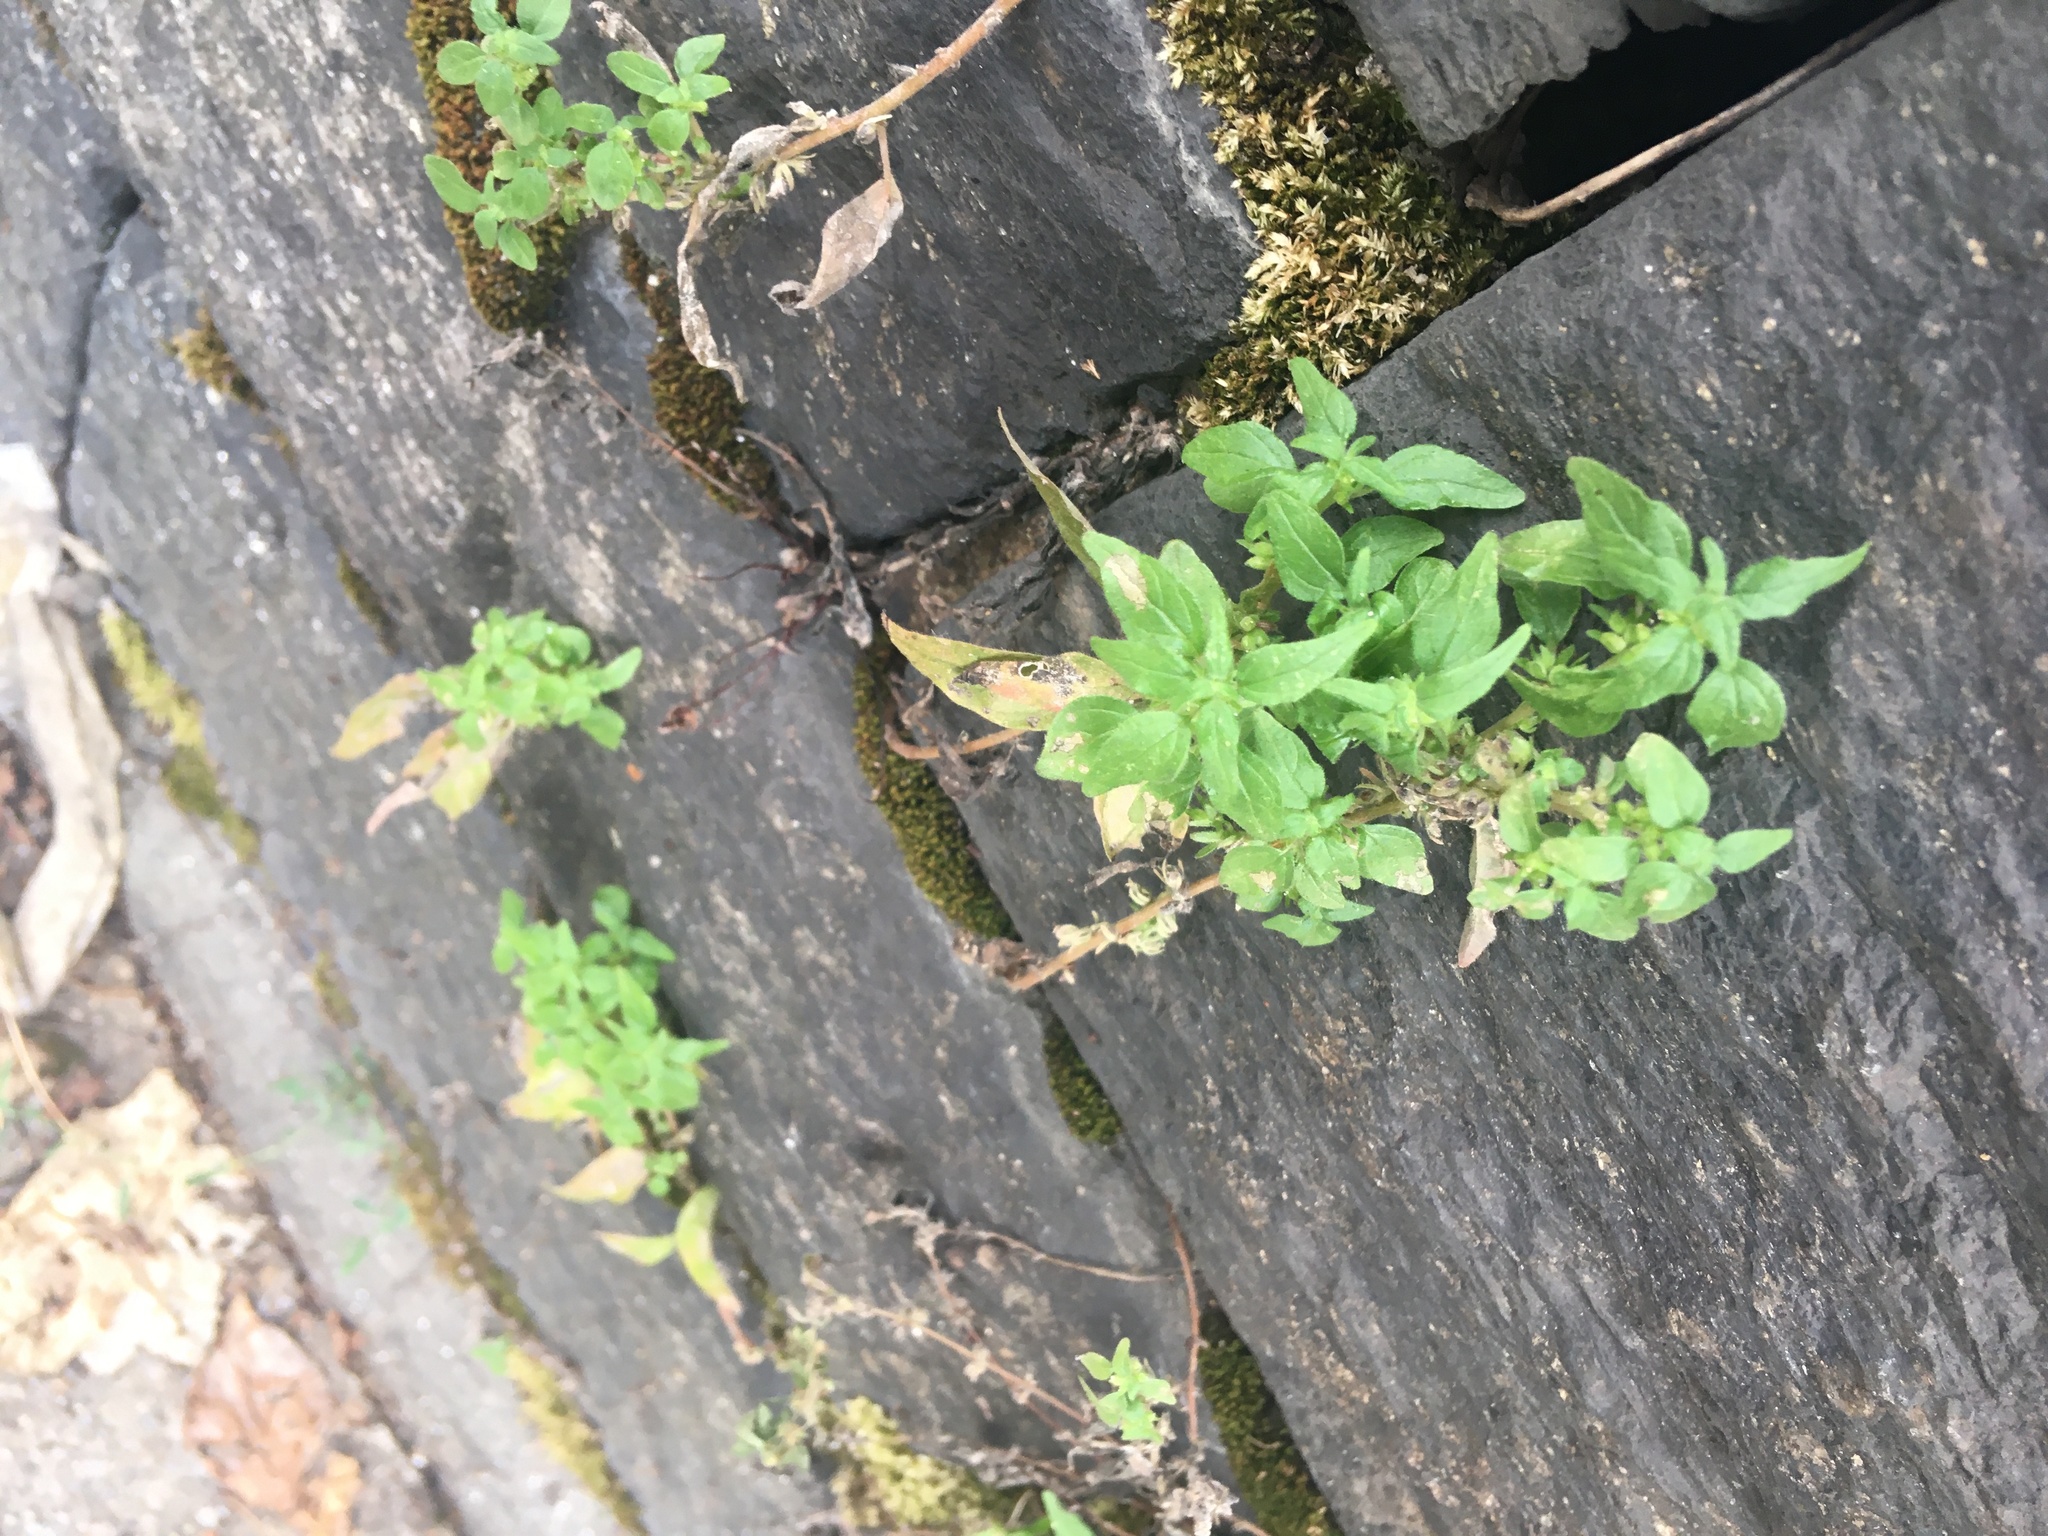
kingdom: Plantae
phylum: Tracheophyta
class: Magnoliopsida
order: Rosales
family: Urticaceae
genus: Parietaria
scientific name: Parietaria pensylvanica
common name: Pennsylvania pellitory
